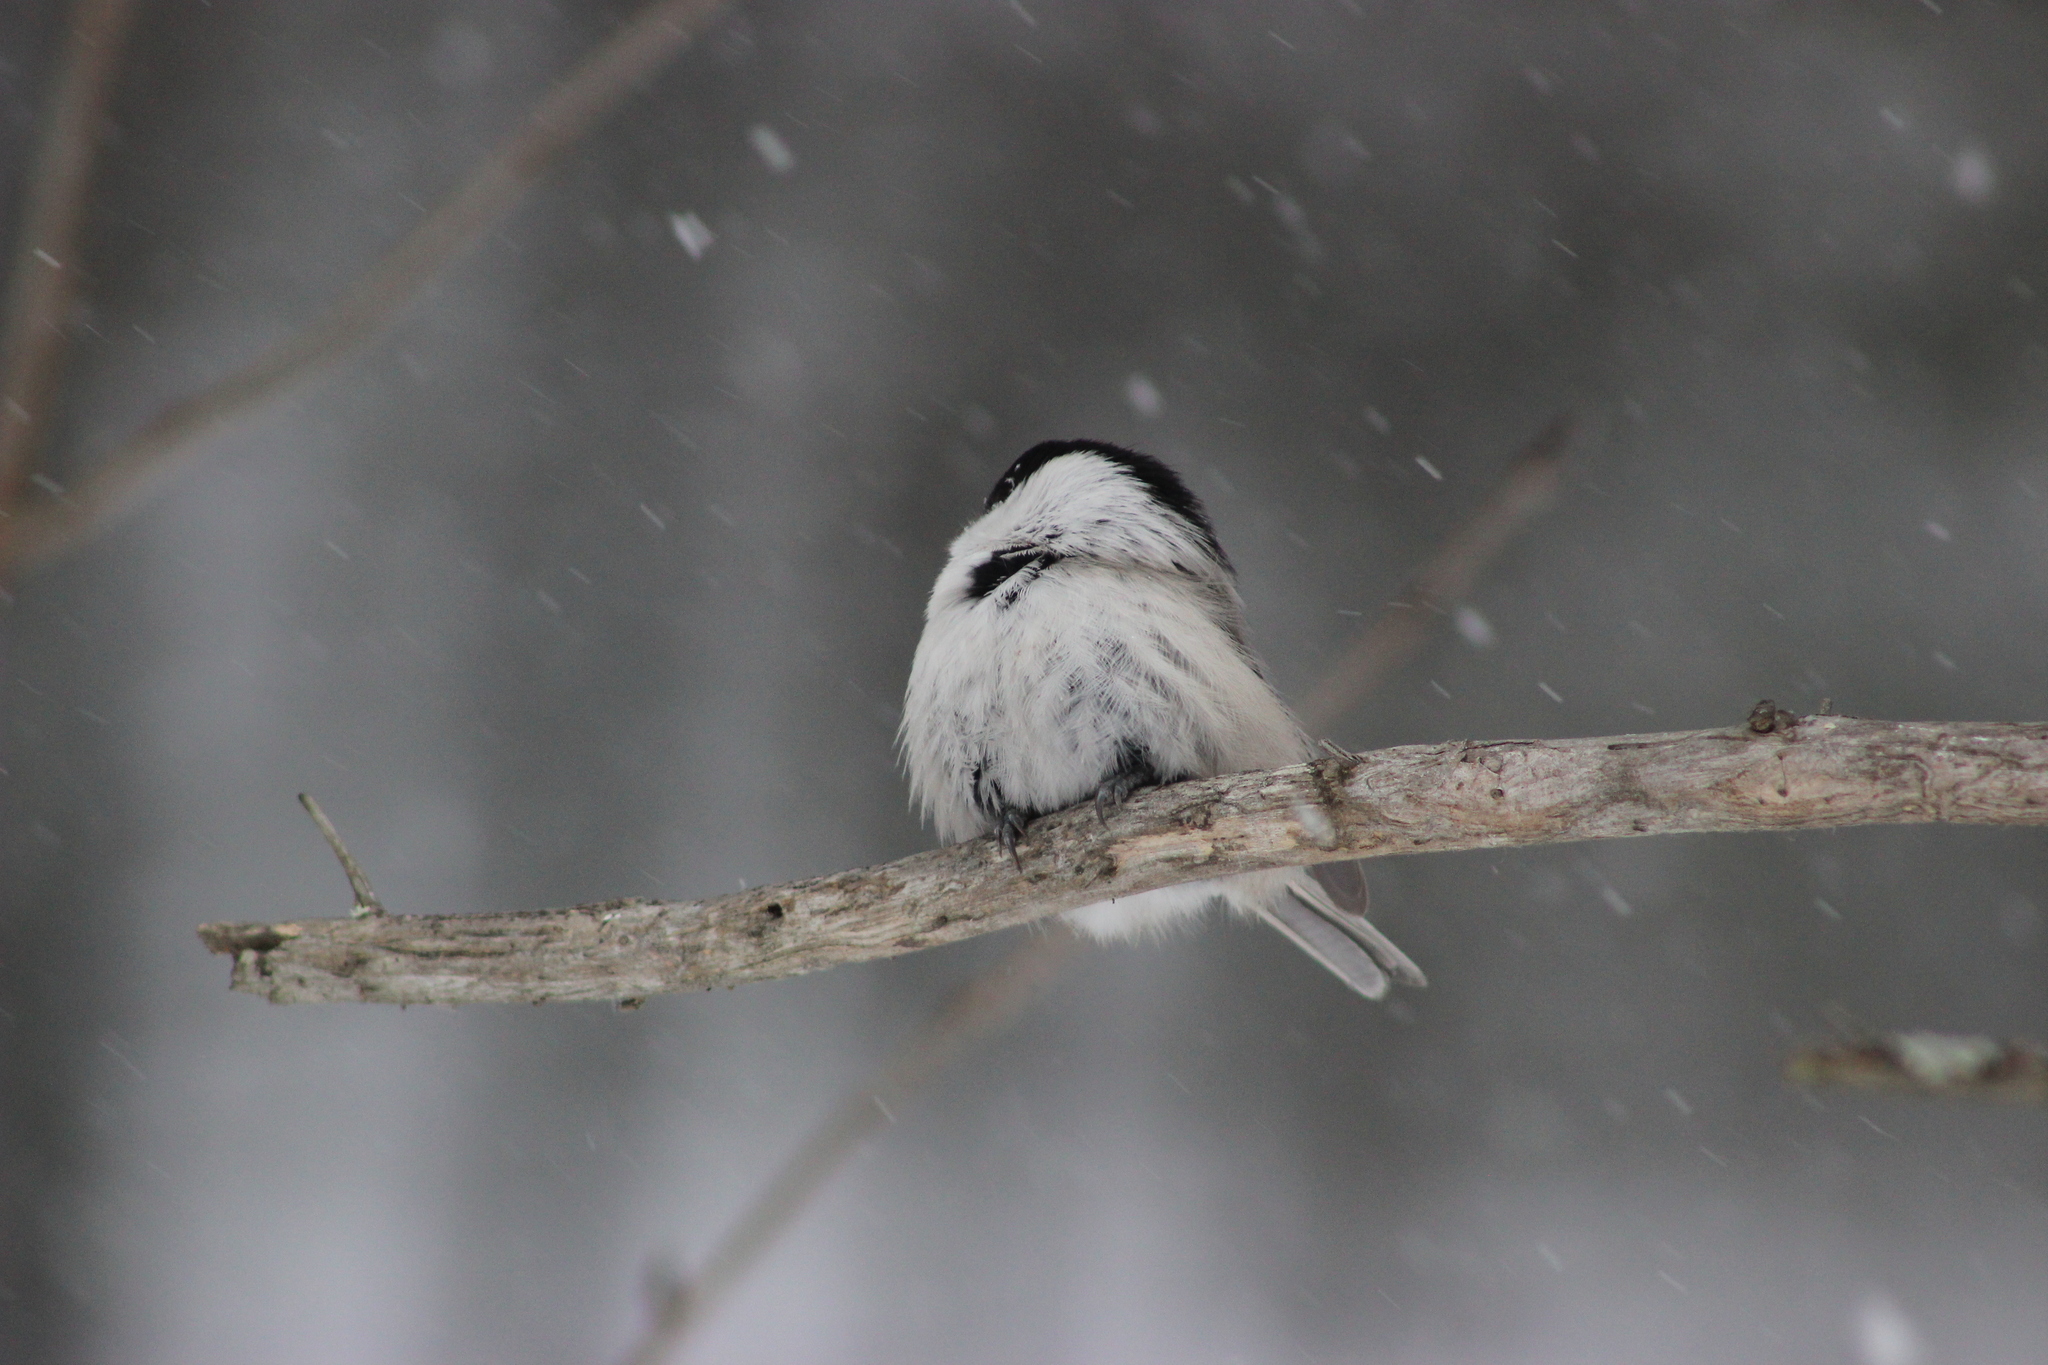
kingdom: Animalia
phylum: Chordata
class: Aves
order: Passeriformes
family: Paridae
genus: Poecile
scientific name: Poecile montanus
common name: Willow tit
